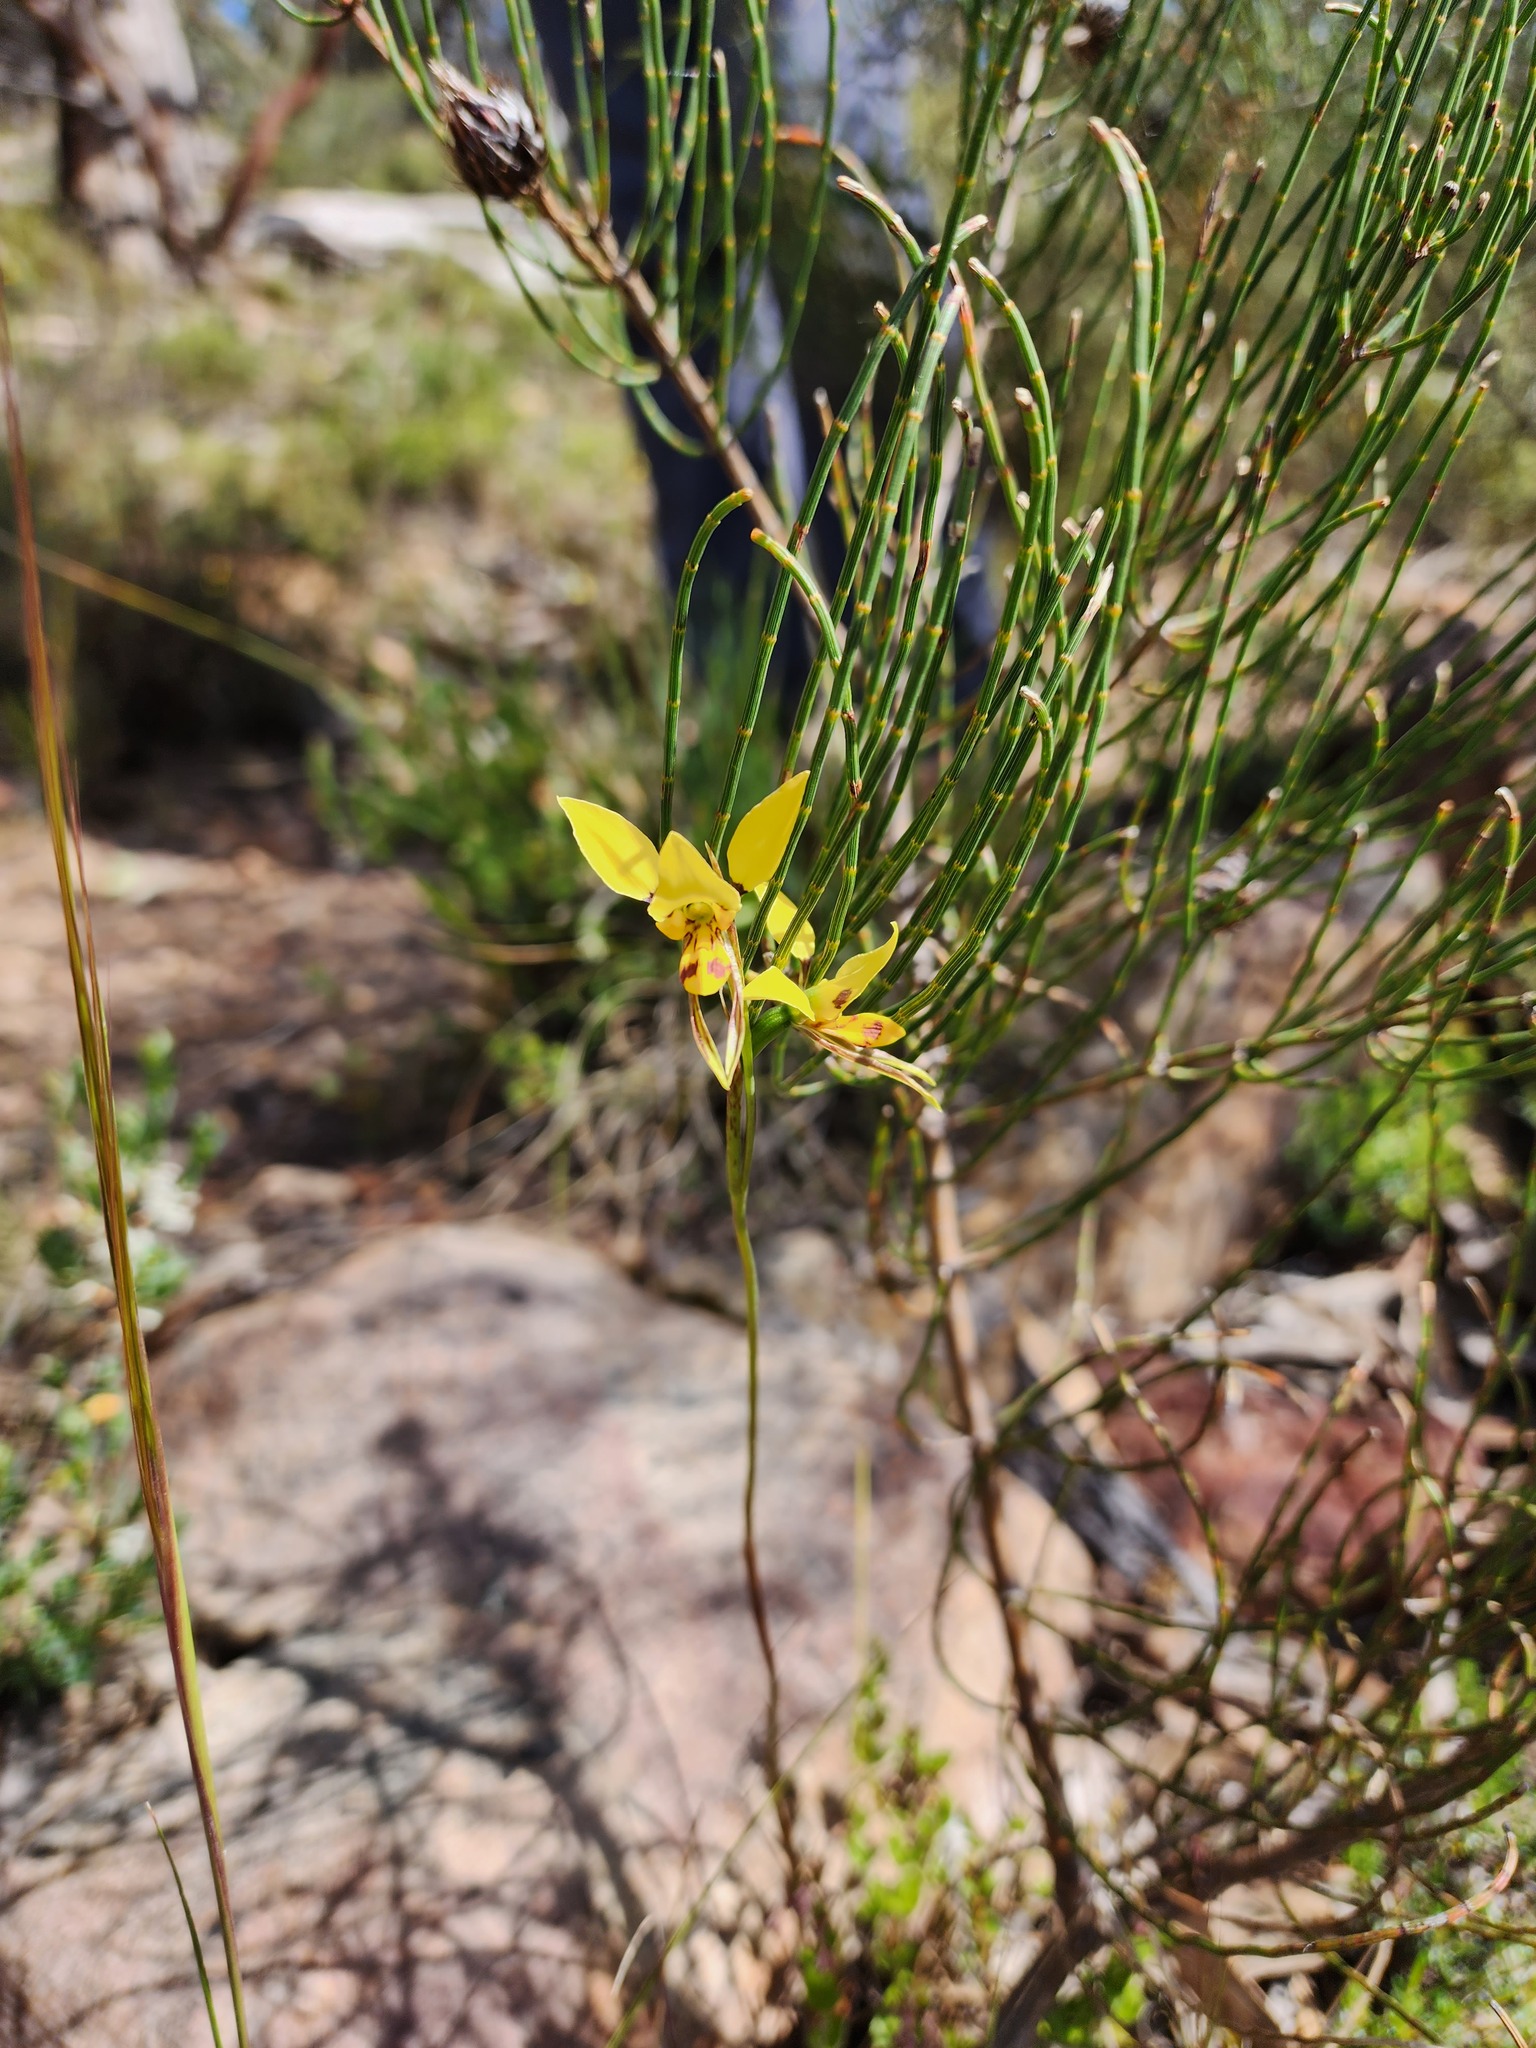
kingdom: Plantae
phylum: Tracheophyta
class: Liliopsida
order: Asparagales
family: Orchidaceae
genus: Diuris
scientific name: Diuris sulphurea
